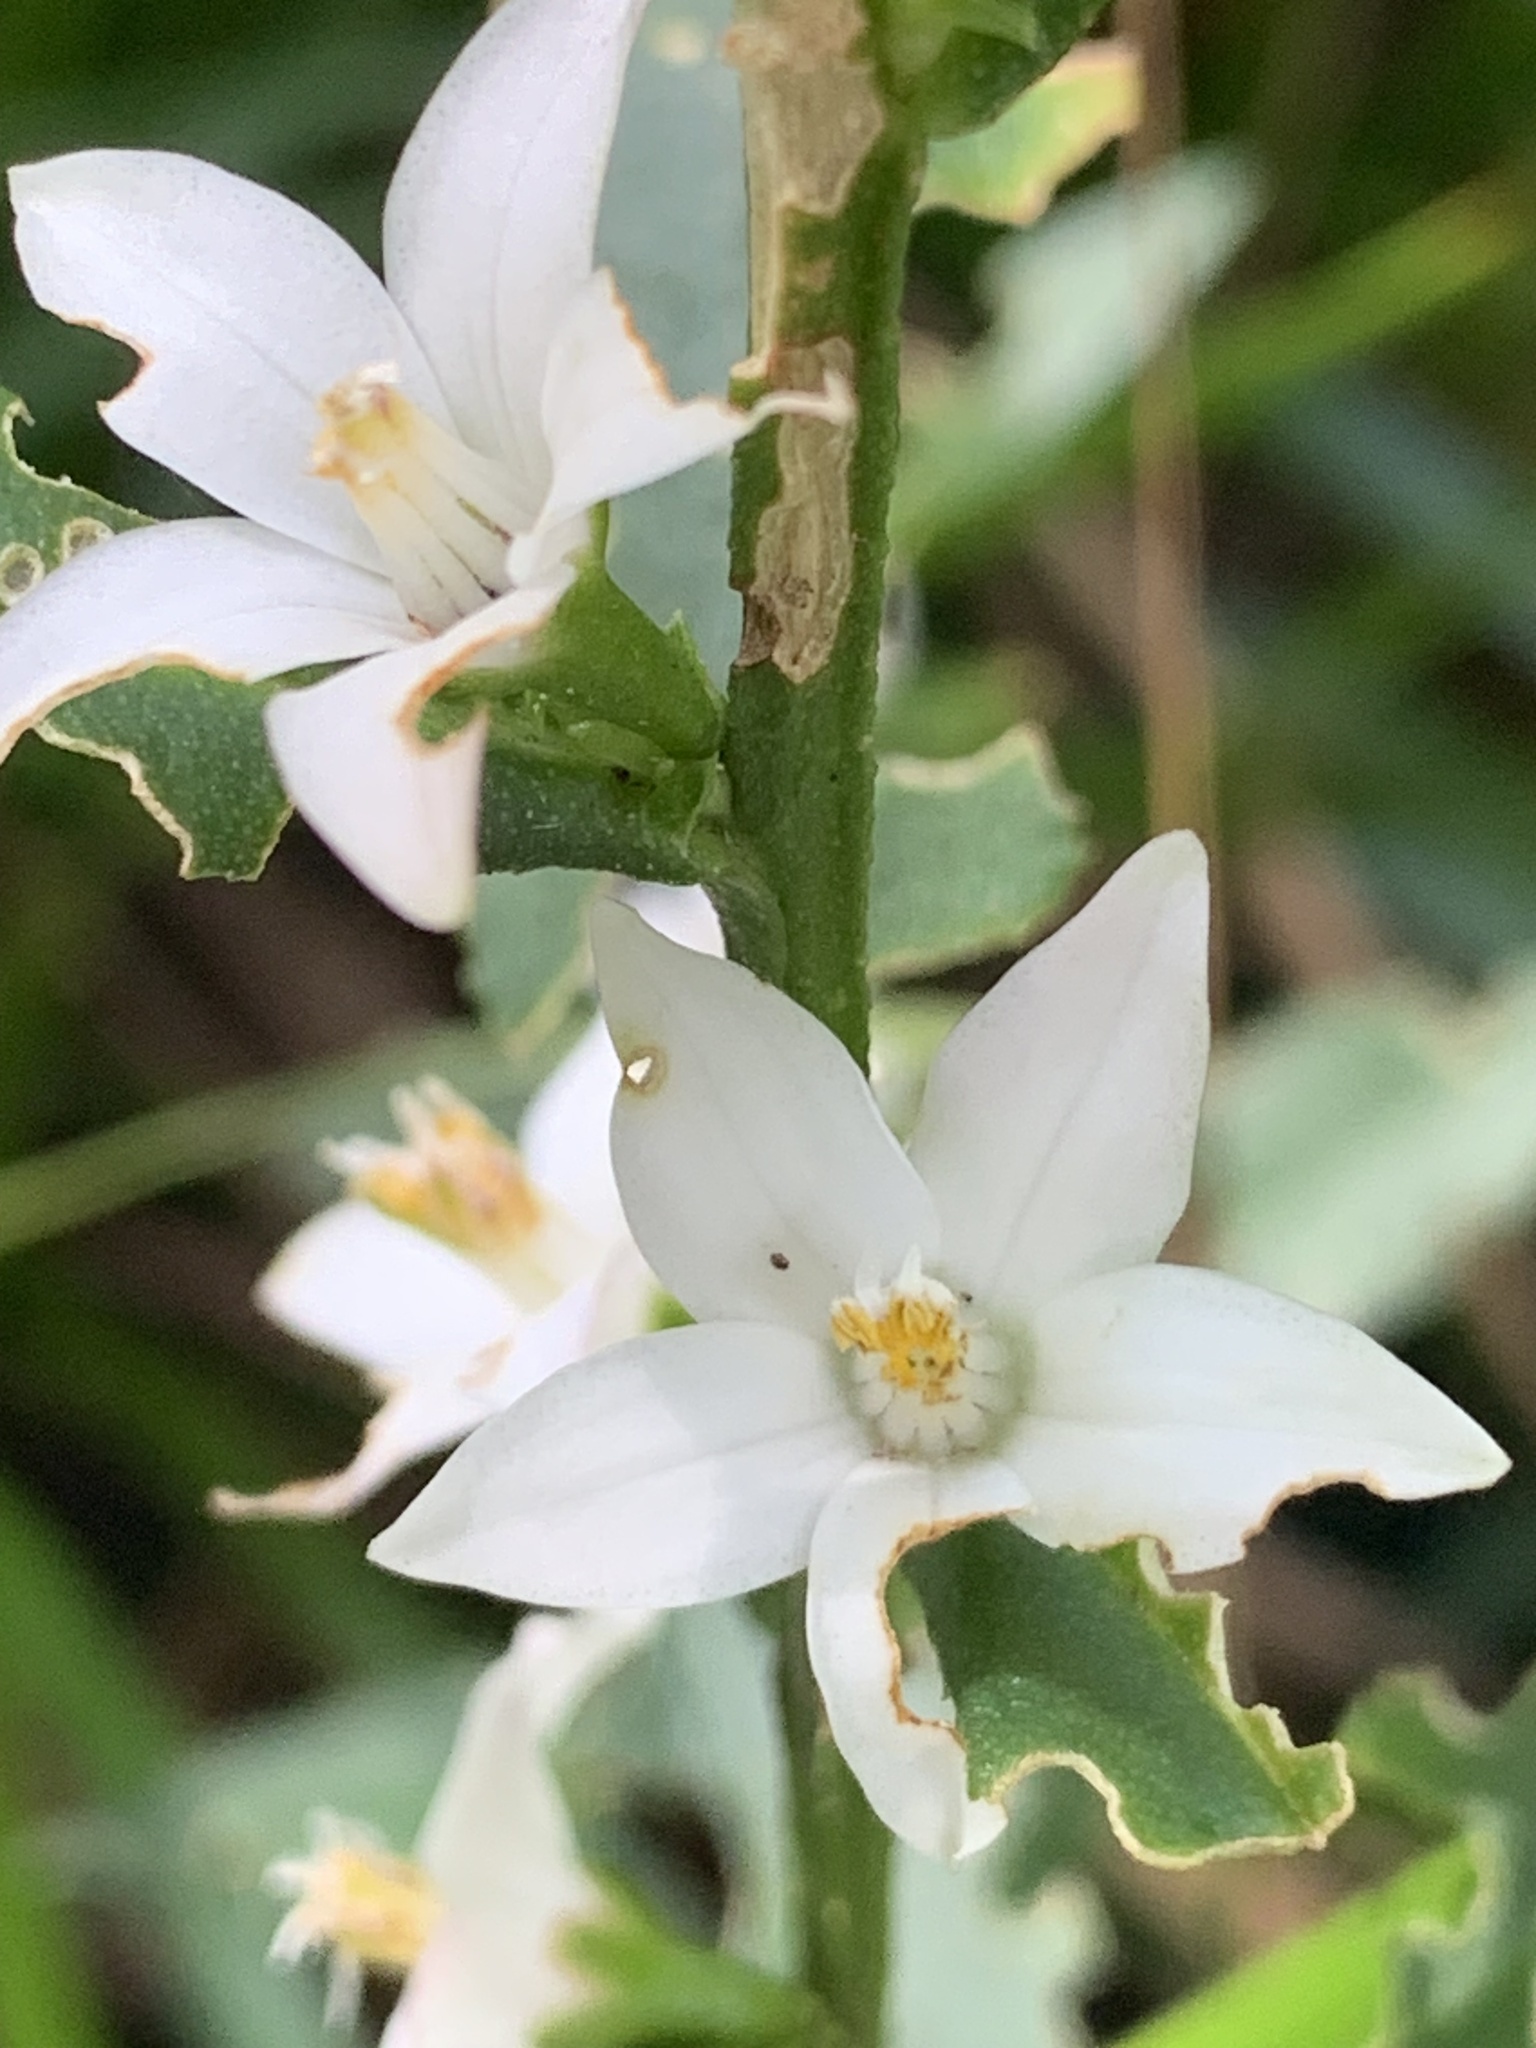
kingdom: Plantae
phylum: Tracheophyta
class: Magnoliopsida
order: Sapindales
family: Rutaceae
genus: Crowea
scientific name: Crowea angustifolia
